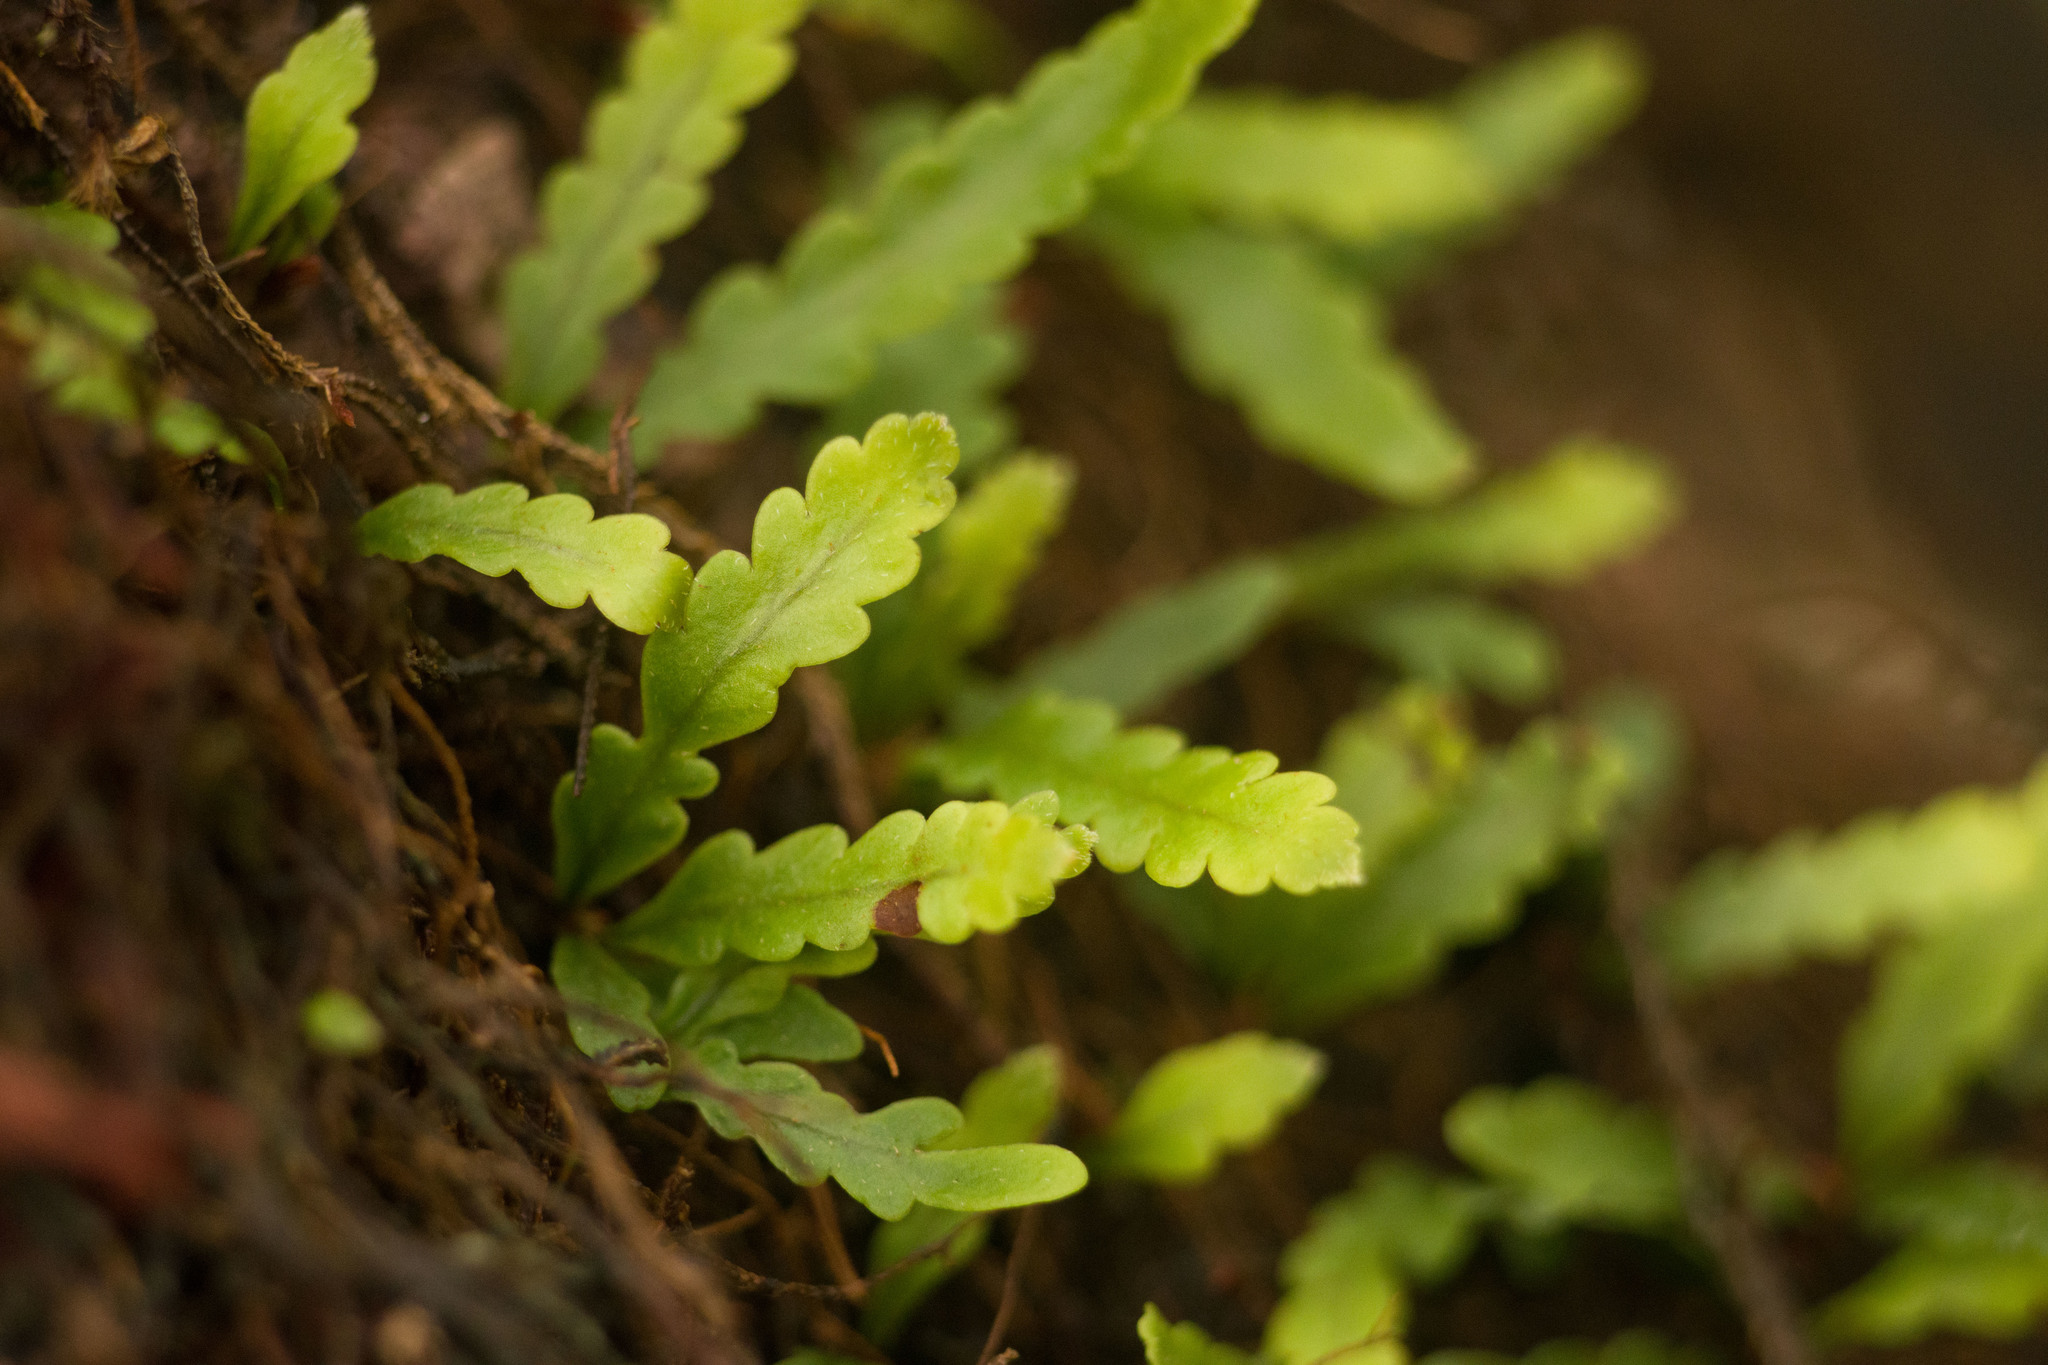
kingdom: Plantae
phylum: Tracheophyta
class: Polypodiopsida
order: Polypodiales
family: Polypodiaceae
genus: Adenophorus
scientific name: Adenophorus haalilioanus
